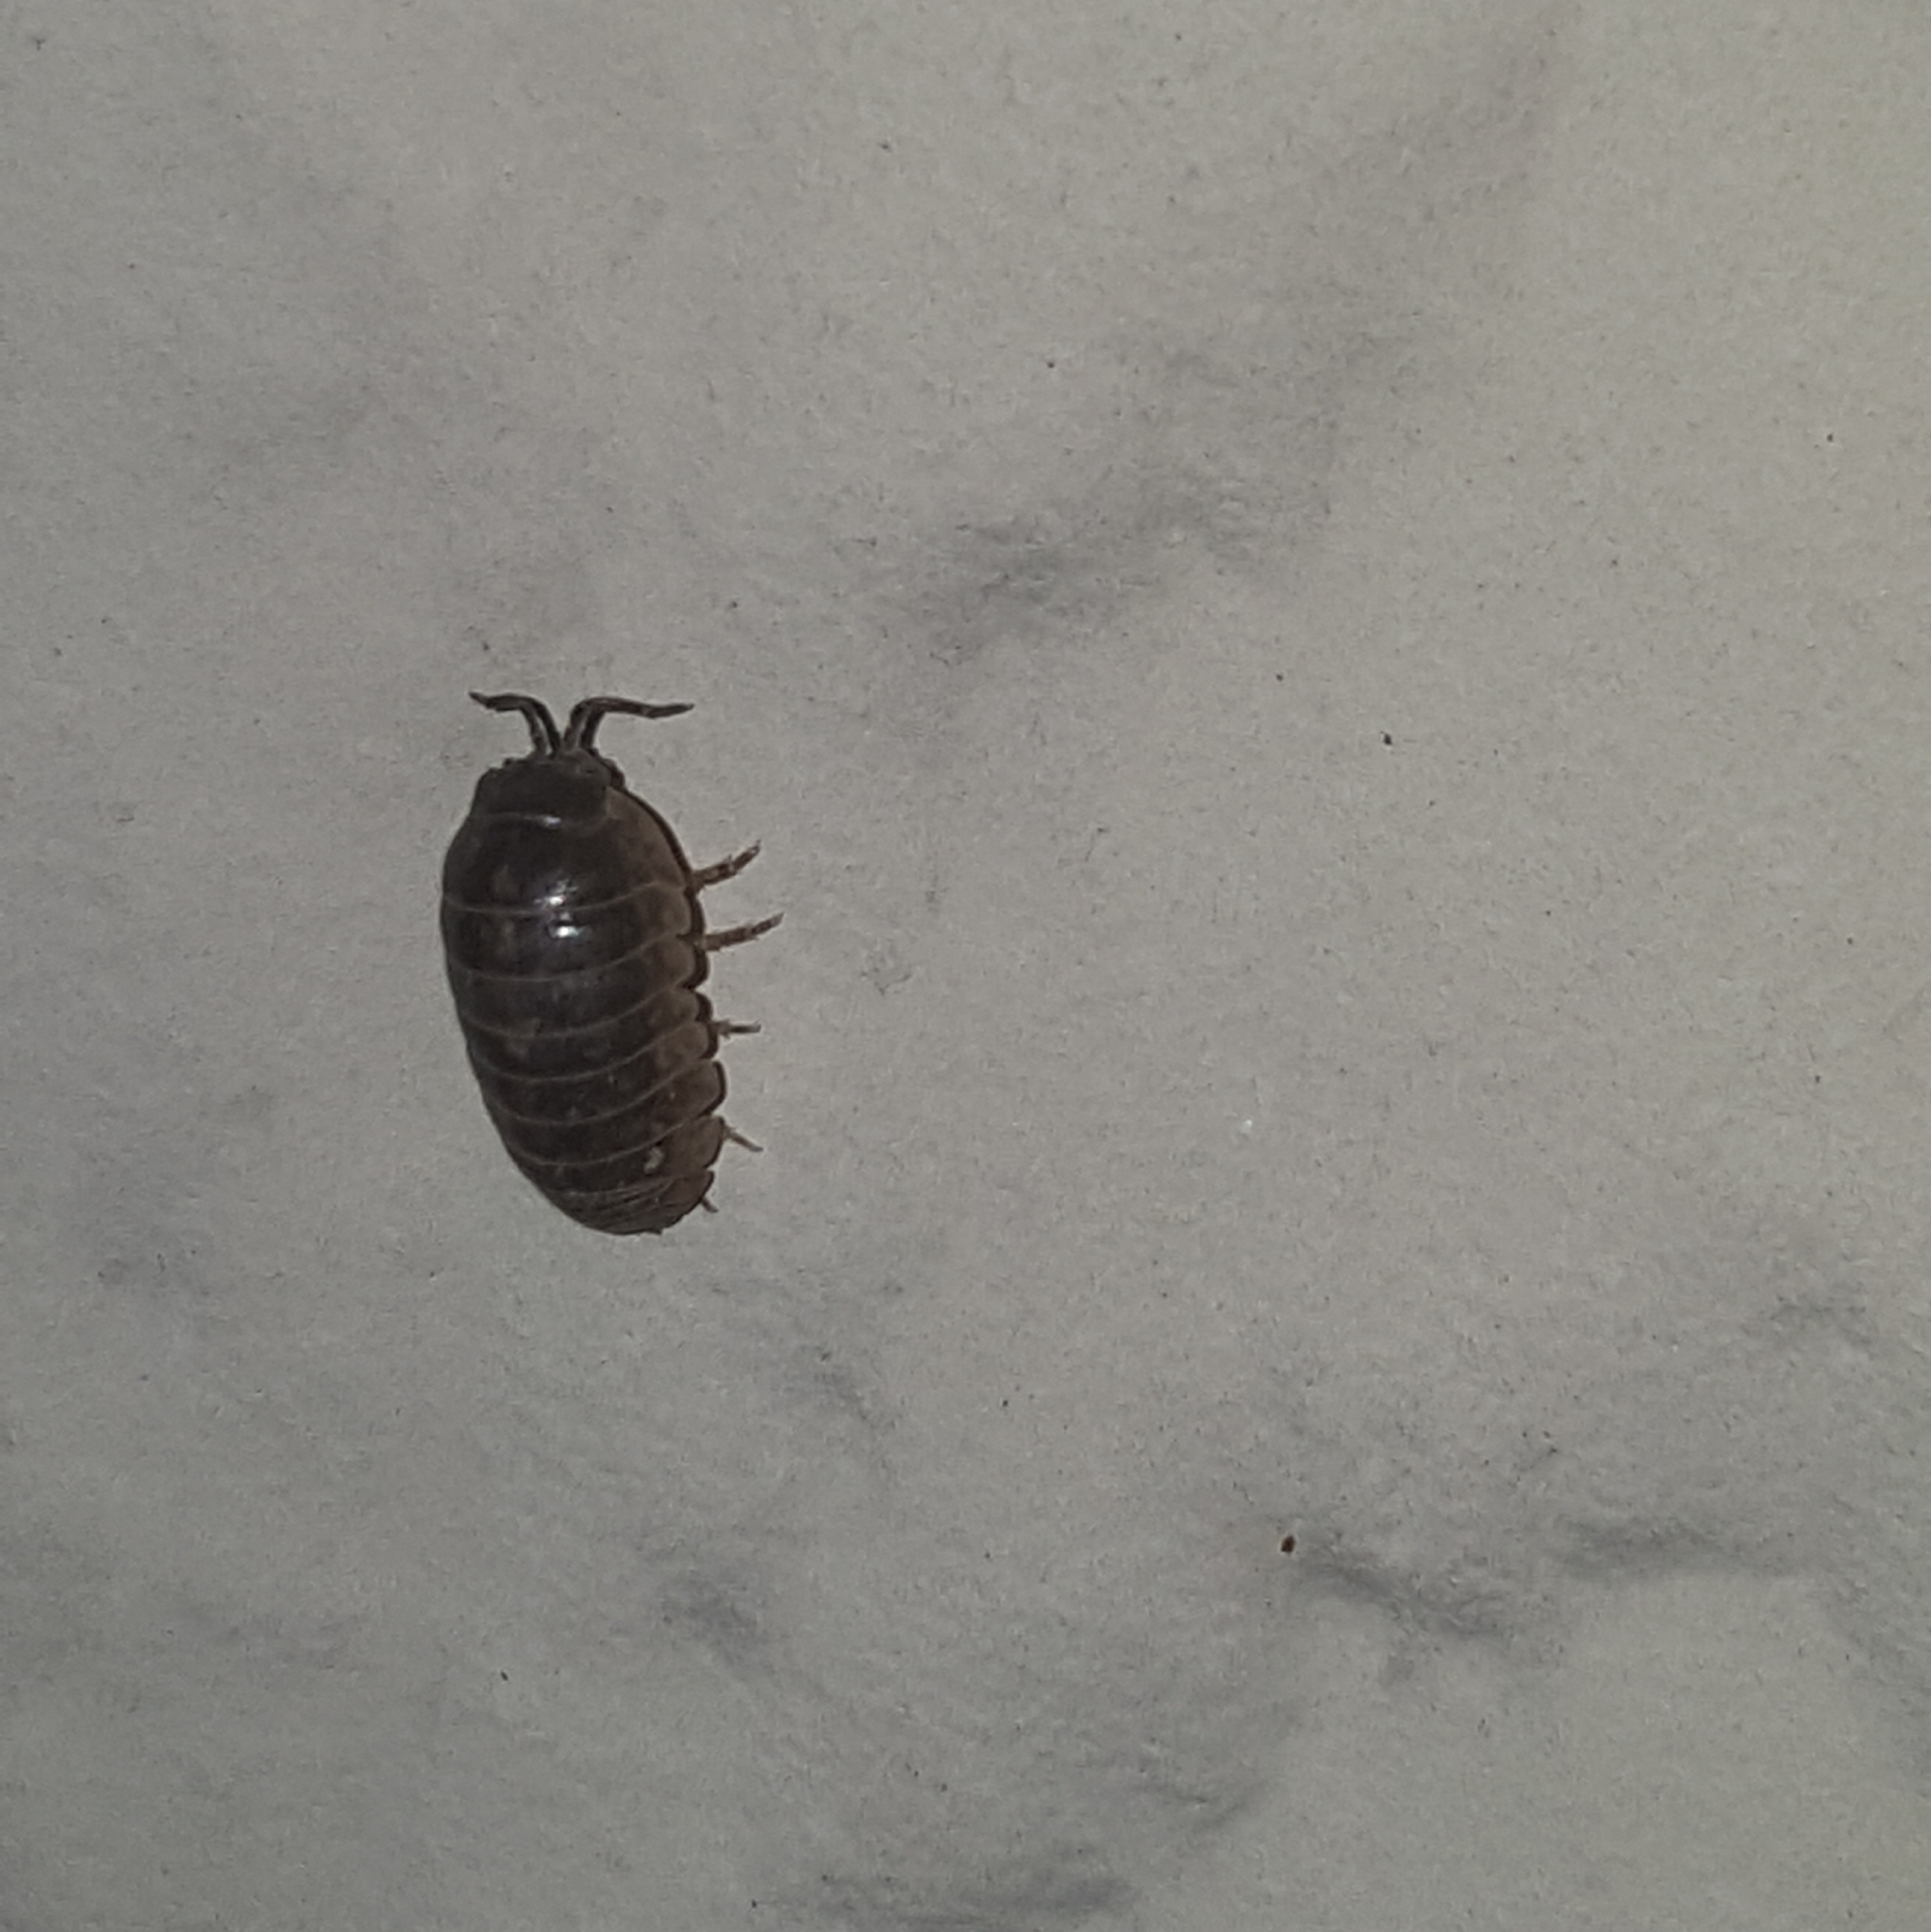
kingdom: Animalia
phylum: Arthropoda
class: Malacostraca
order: Isopoda
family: Armadillidiidae
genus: Armadillidium
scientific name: Armadillidium vulgare
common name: Common pill woodlouse
